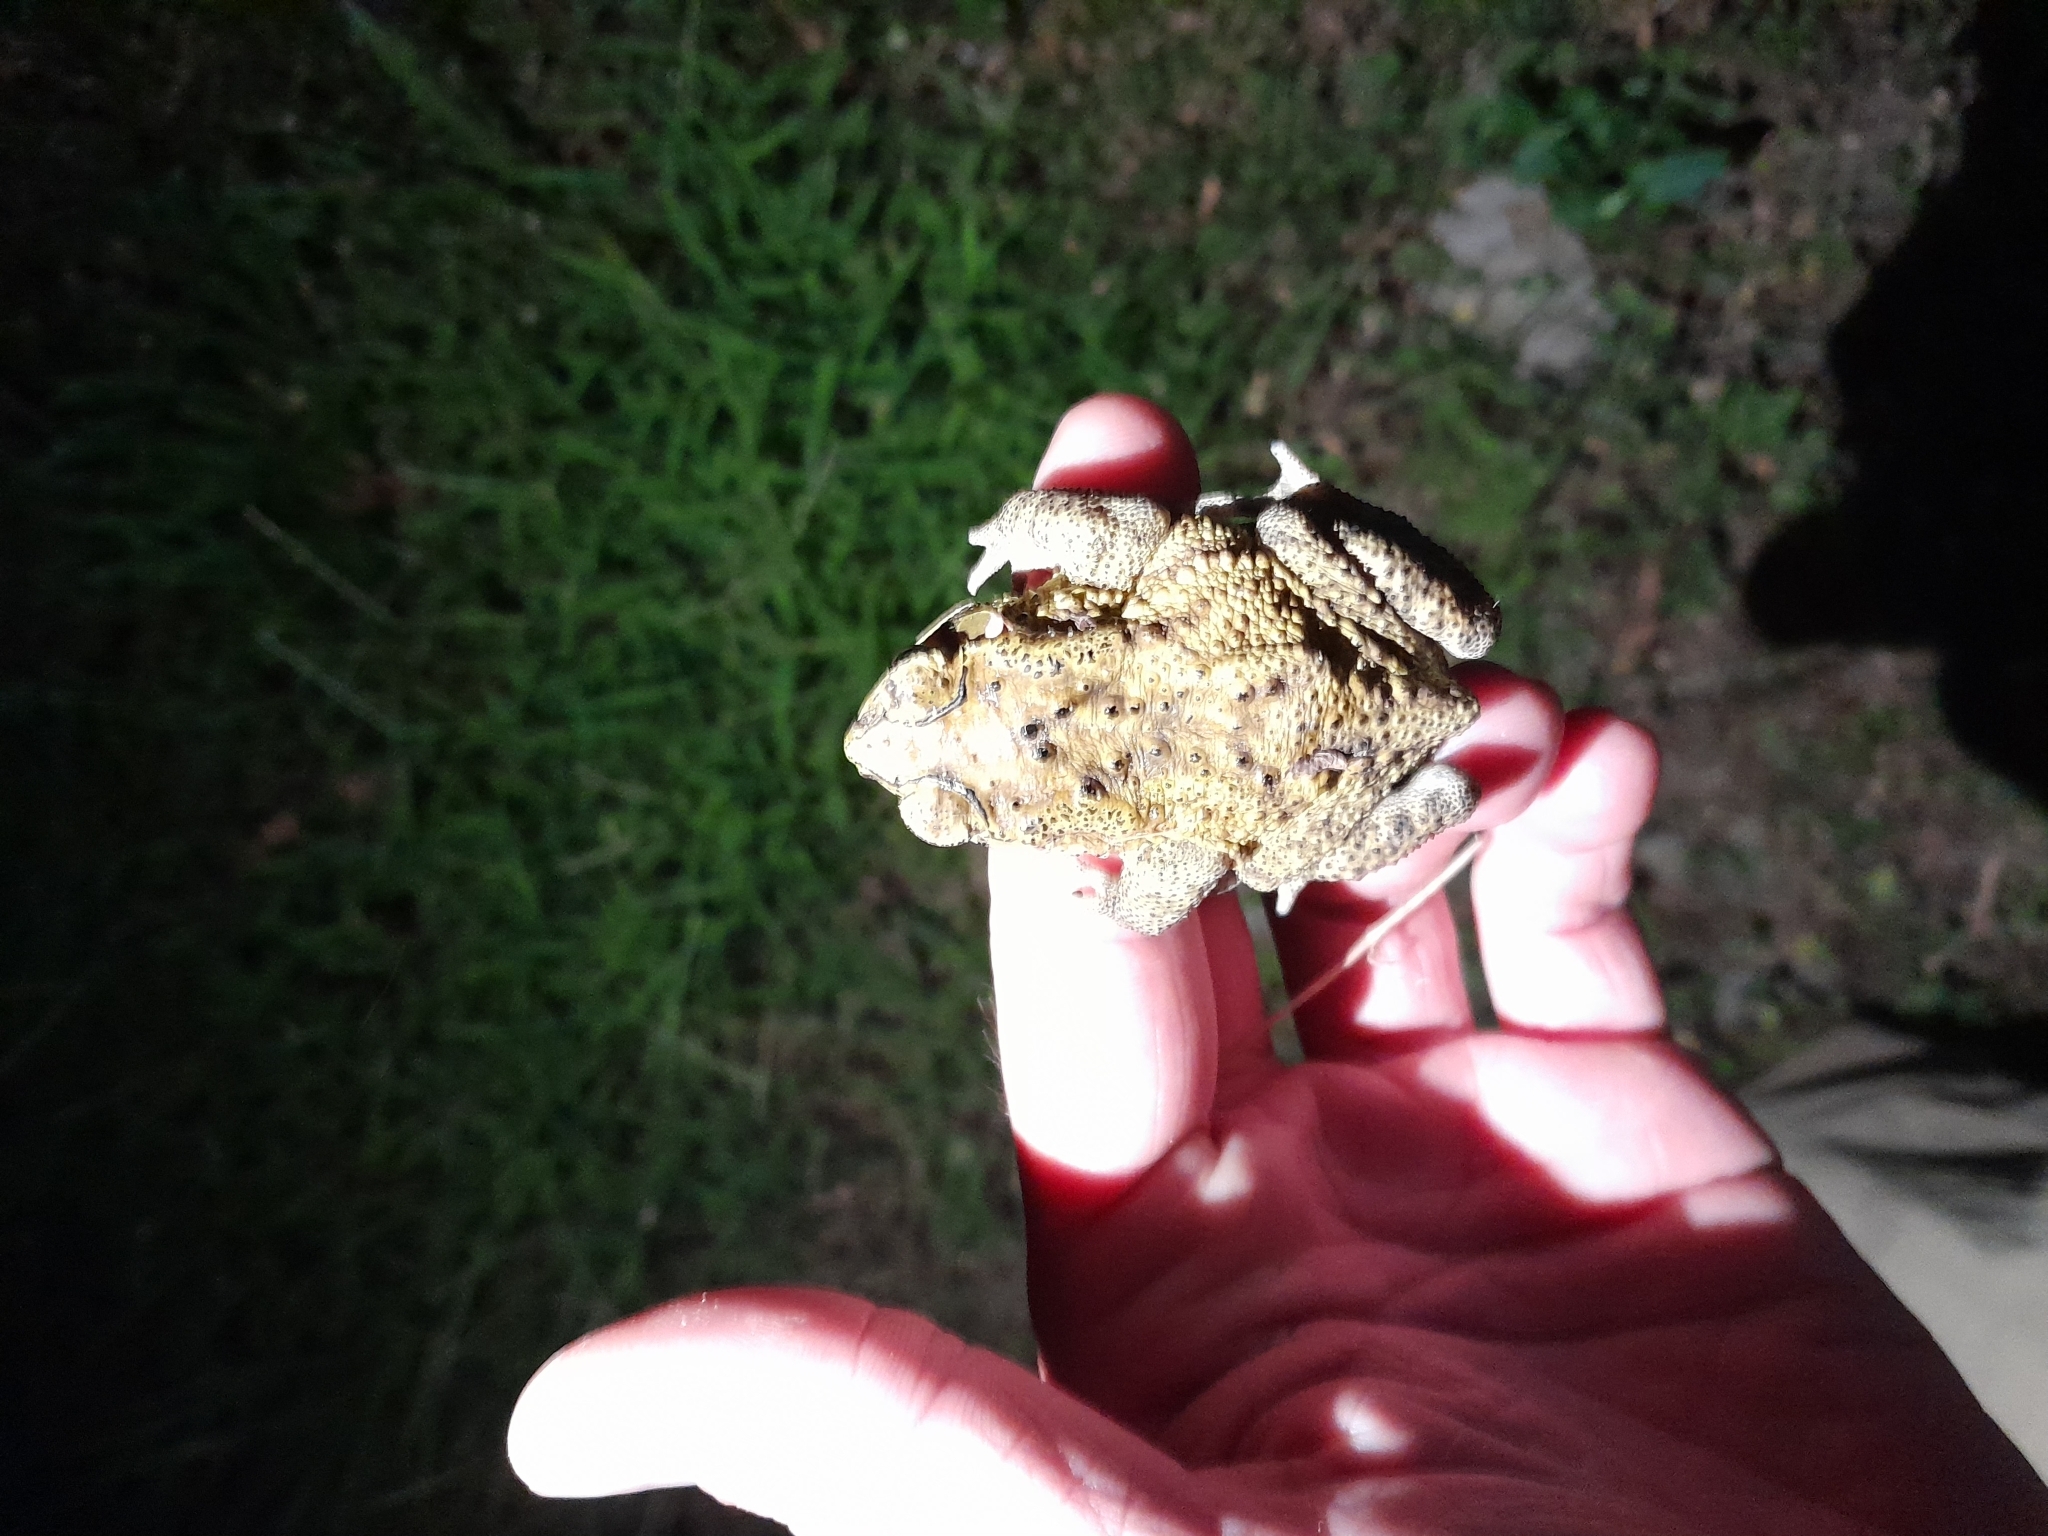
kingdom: Animalia
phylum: Chordata
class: Amphibia
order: Anura
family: Bufonidae
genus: Duttaphrynus
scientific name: Duttaphrynus melanostictus
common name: Common sunda toad
